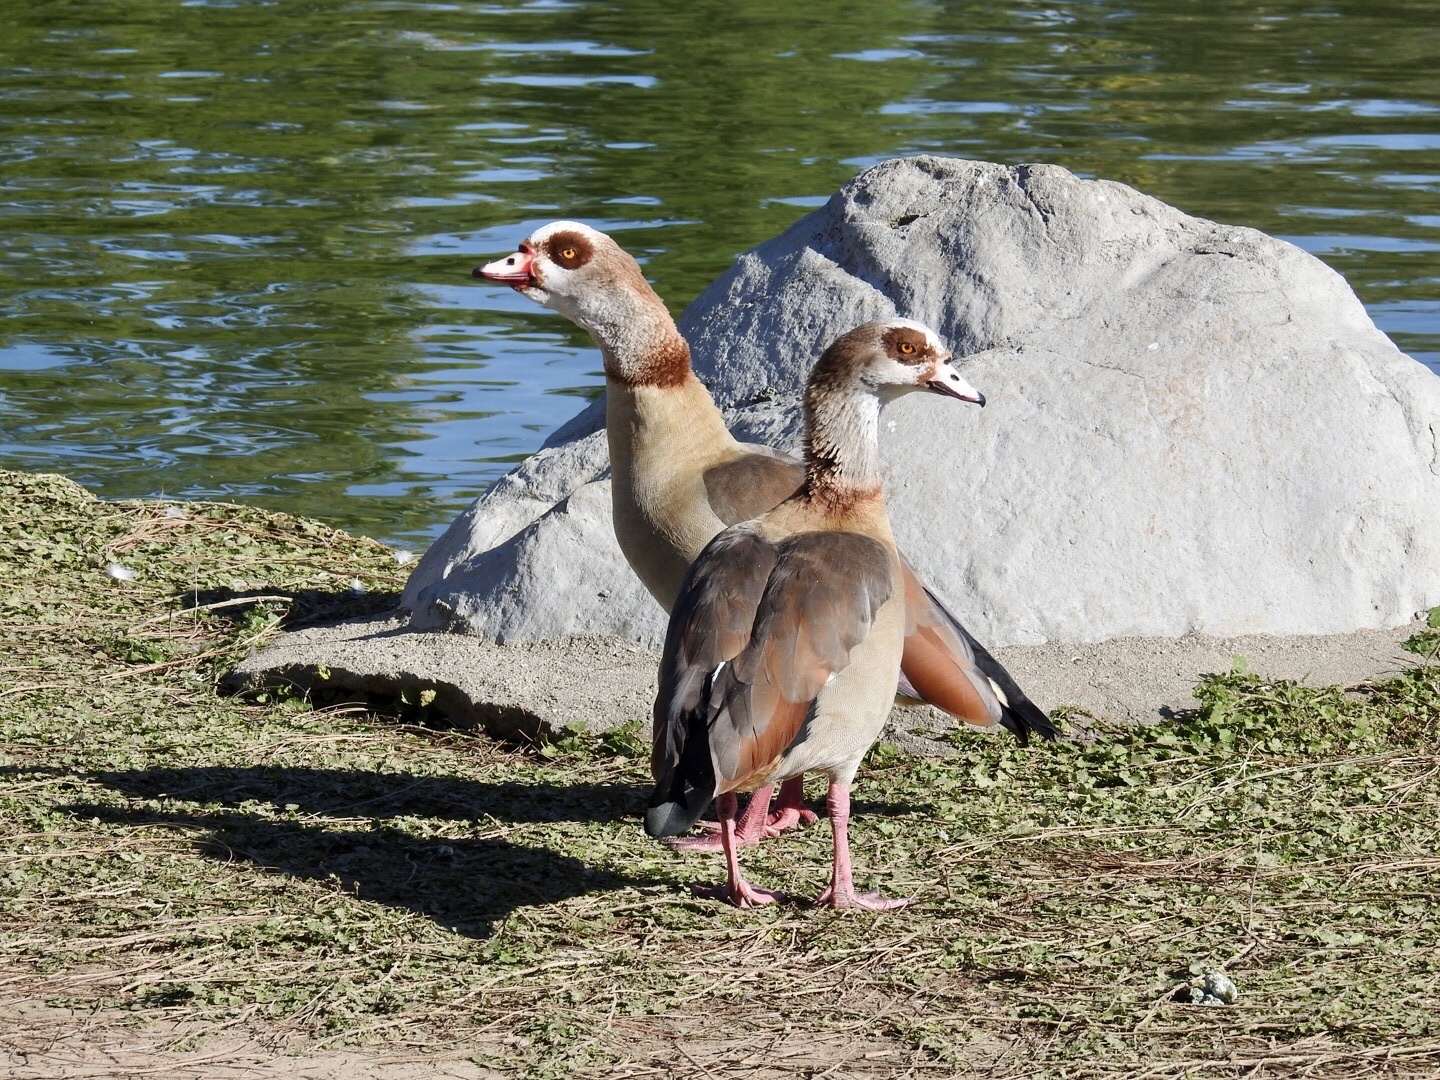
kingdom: Animalia
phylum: Chordata
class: Aves
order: Anseriformes
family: Anatidae
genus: Alopochen
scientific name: Alopochen aegyptiaca
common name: Egyptian goose
